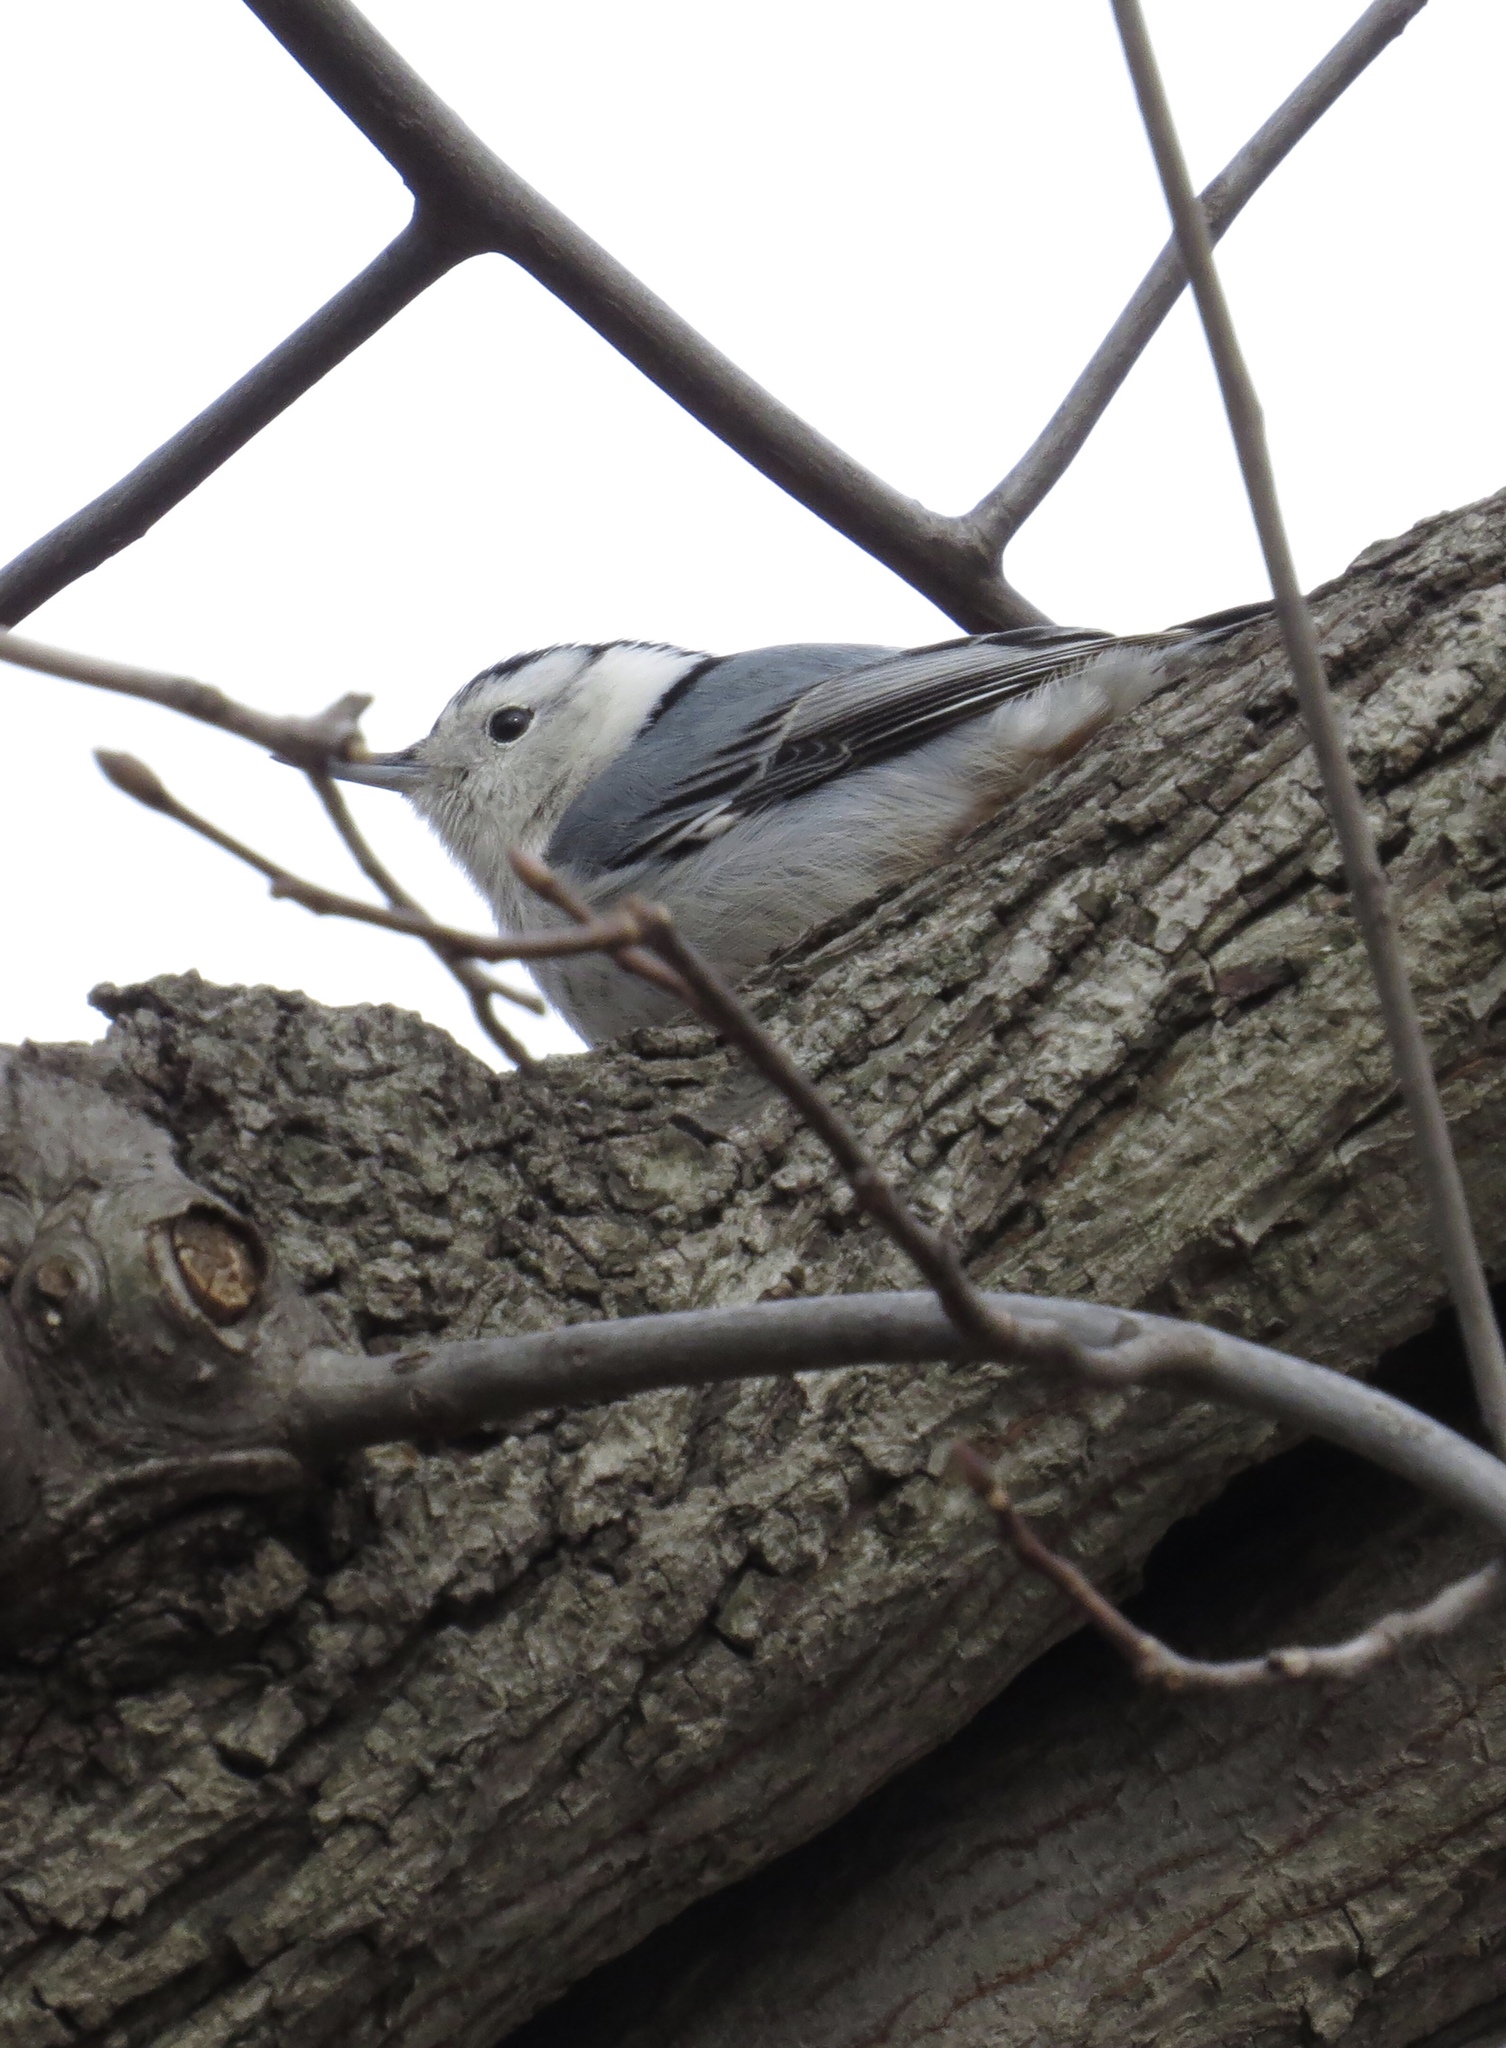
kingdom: Animalia
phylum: Chordata
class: Aves
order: Passeriformes
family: Sittidae
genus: Sitta
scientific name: Sitta carolinensis
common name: White-breasted nuthatch
